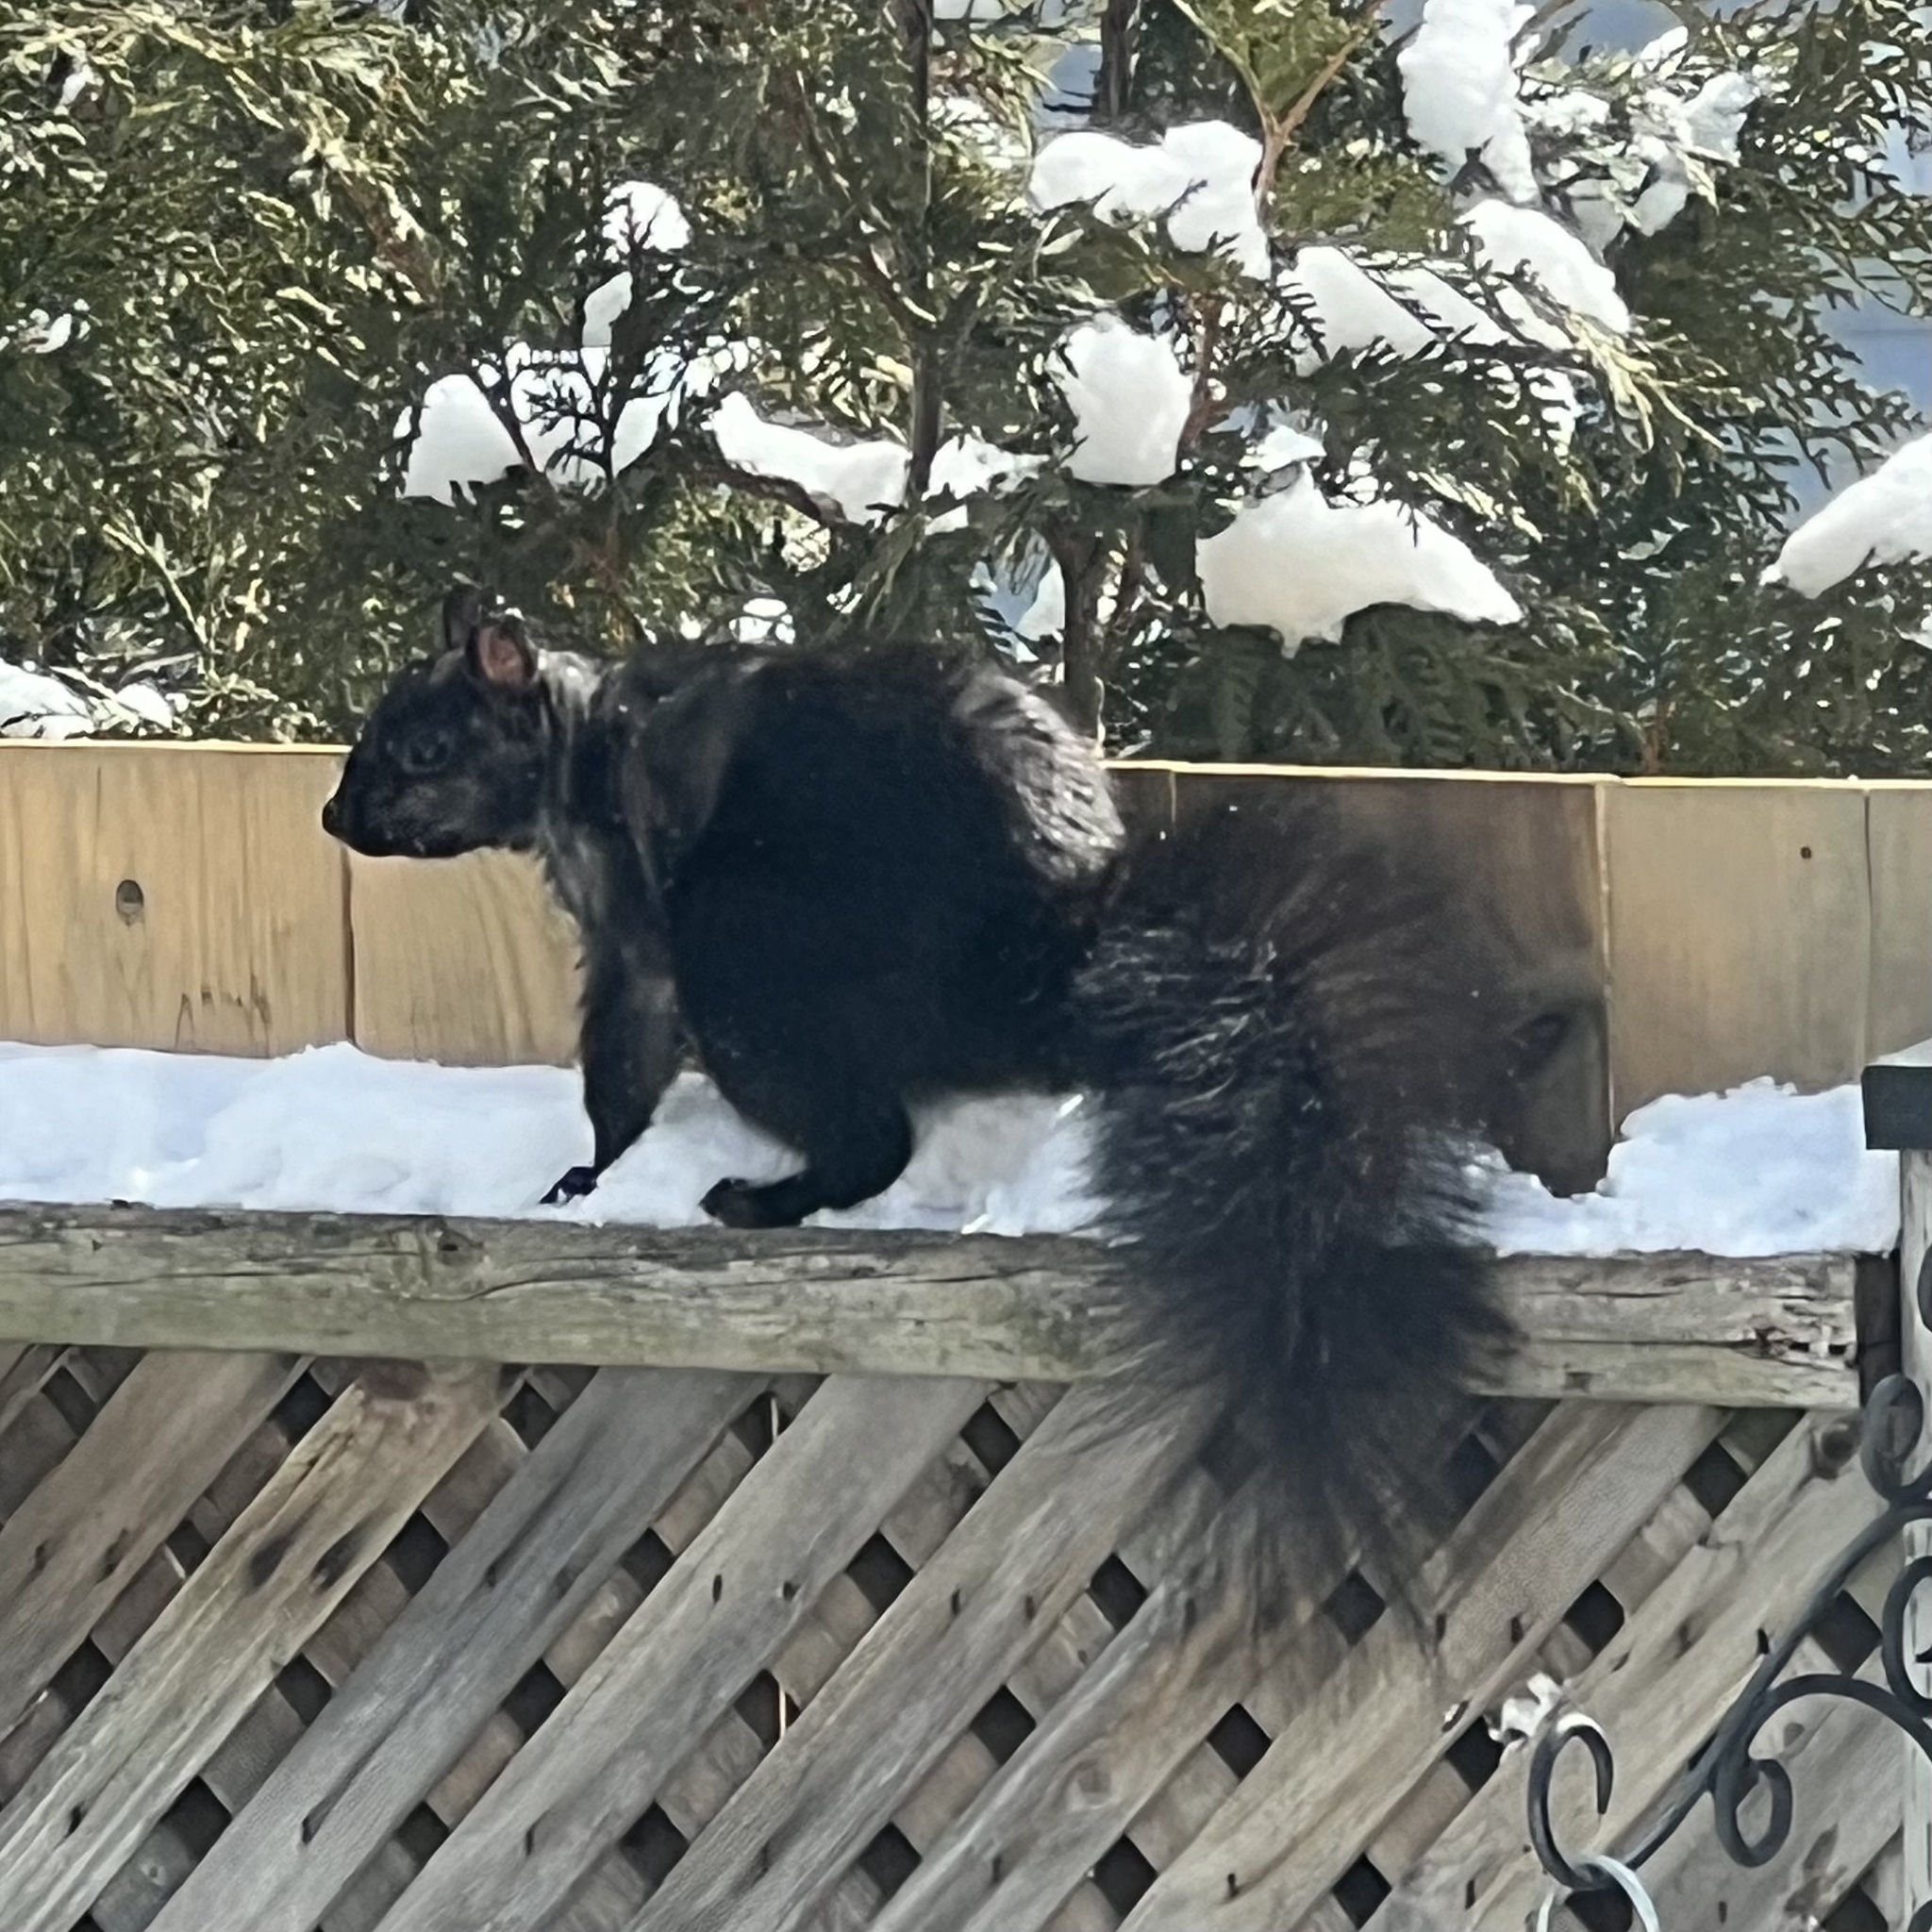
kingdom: Animalia
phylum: Chordata
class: Mammalia
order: Rodentia
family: Sciuridae
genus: Sciurus
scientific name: Sciurus carolinensis
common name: Eastern gray squirrel
